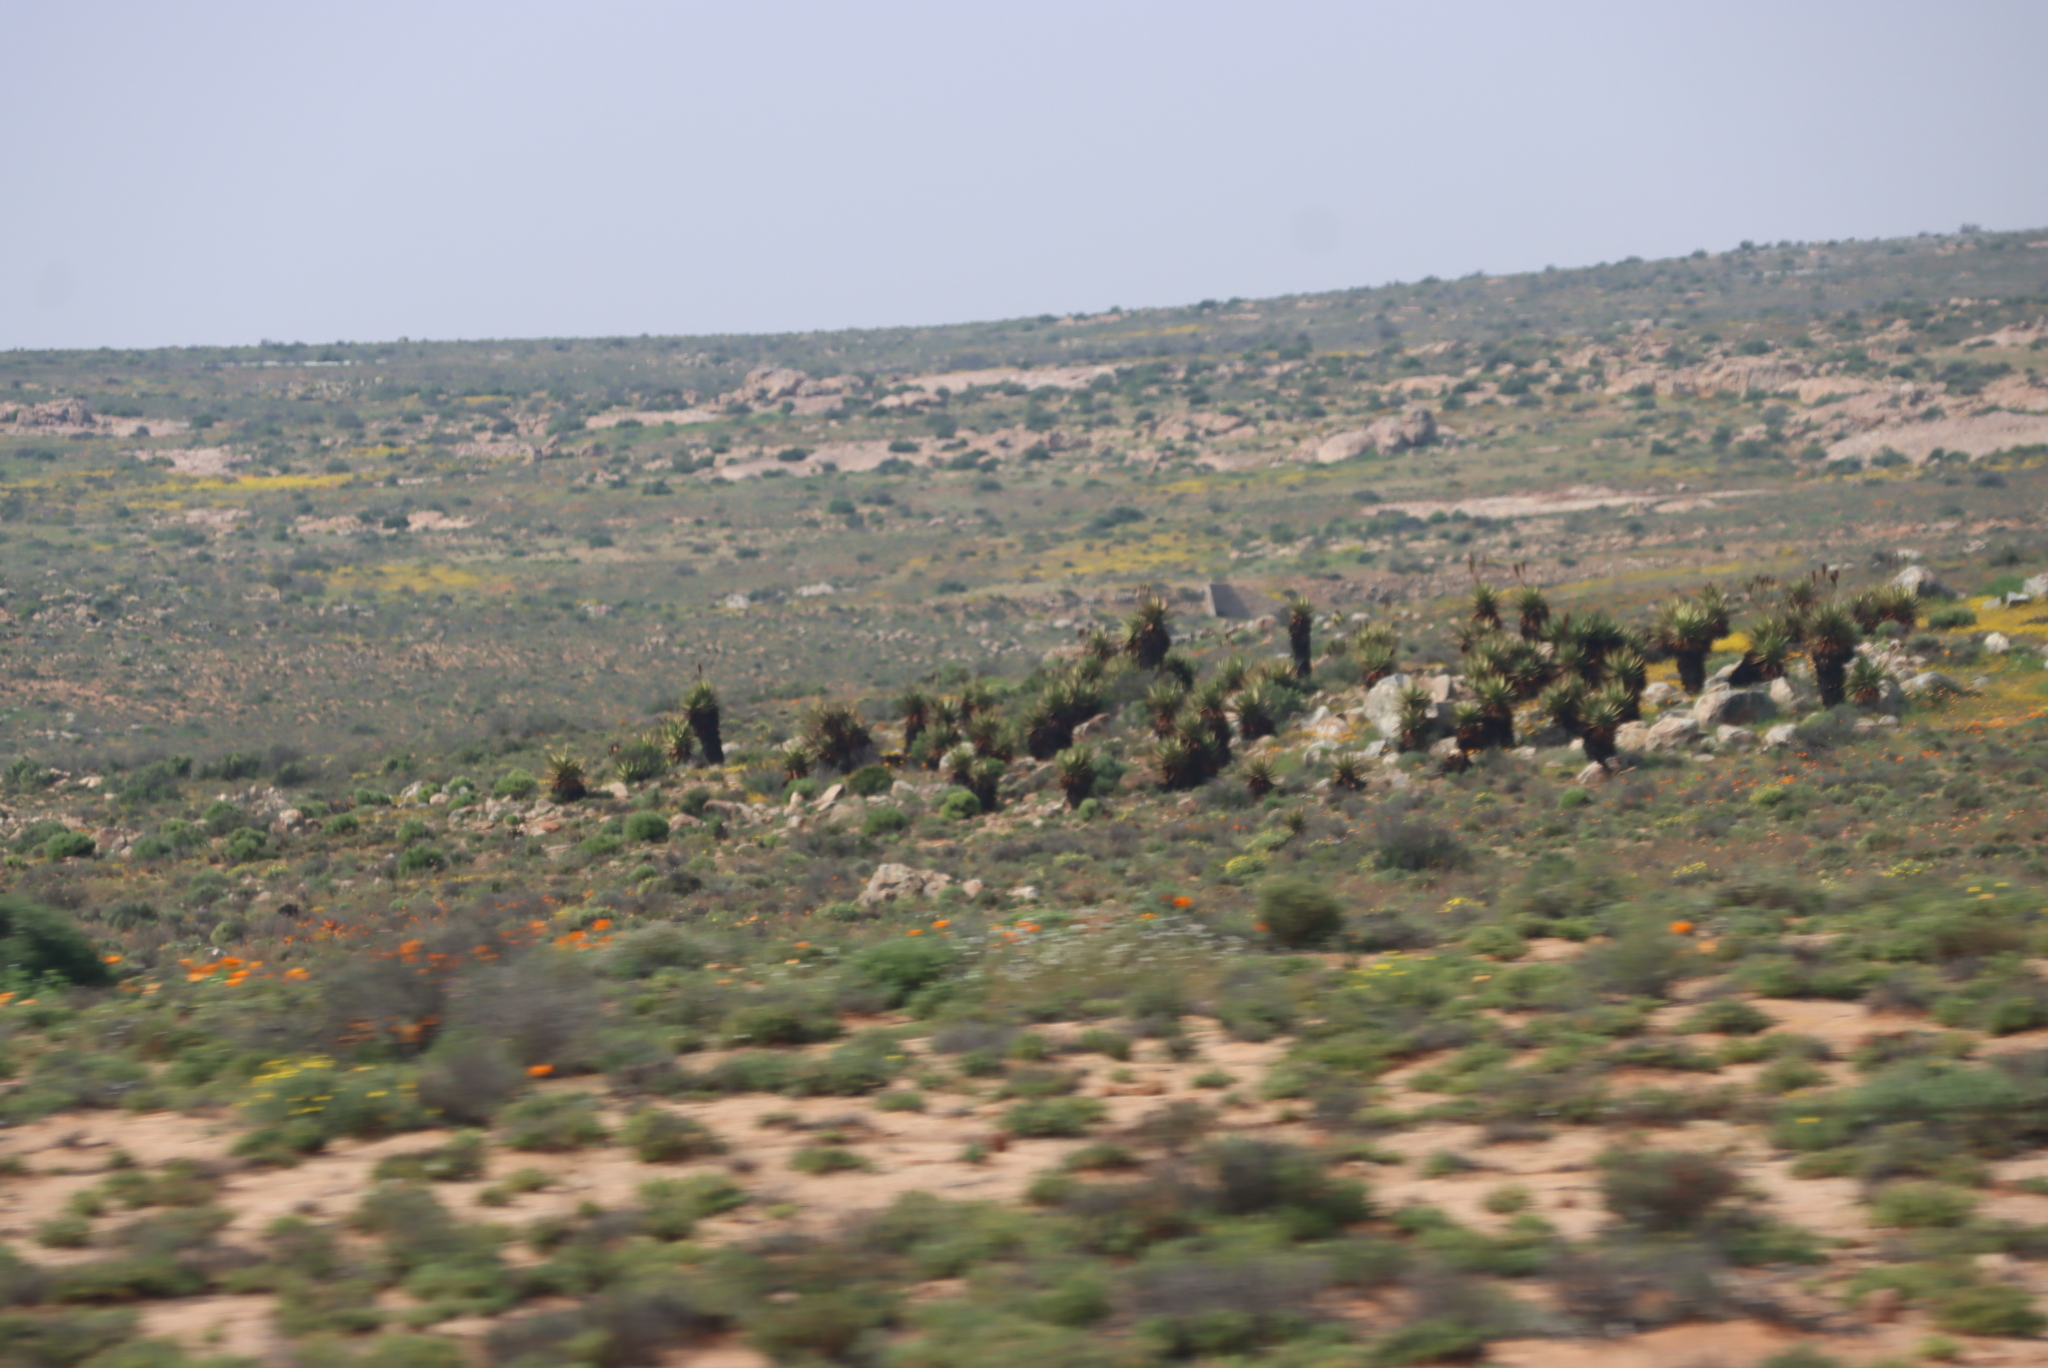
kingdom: Plantae
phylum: Tracheophyta
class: Liliopsida
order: Asparagales
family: Asphodelaceae
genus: Aloe
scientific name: Aloe khamiesensis
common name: Namaqua aloe
